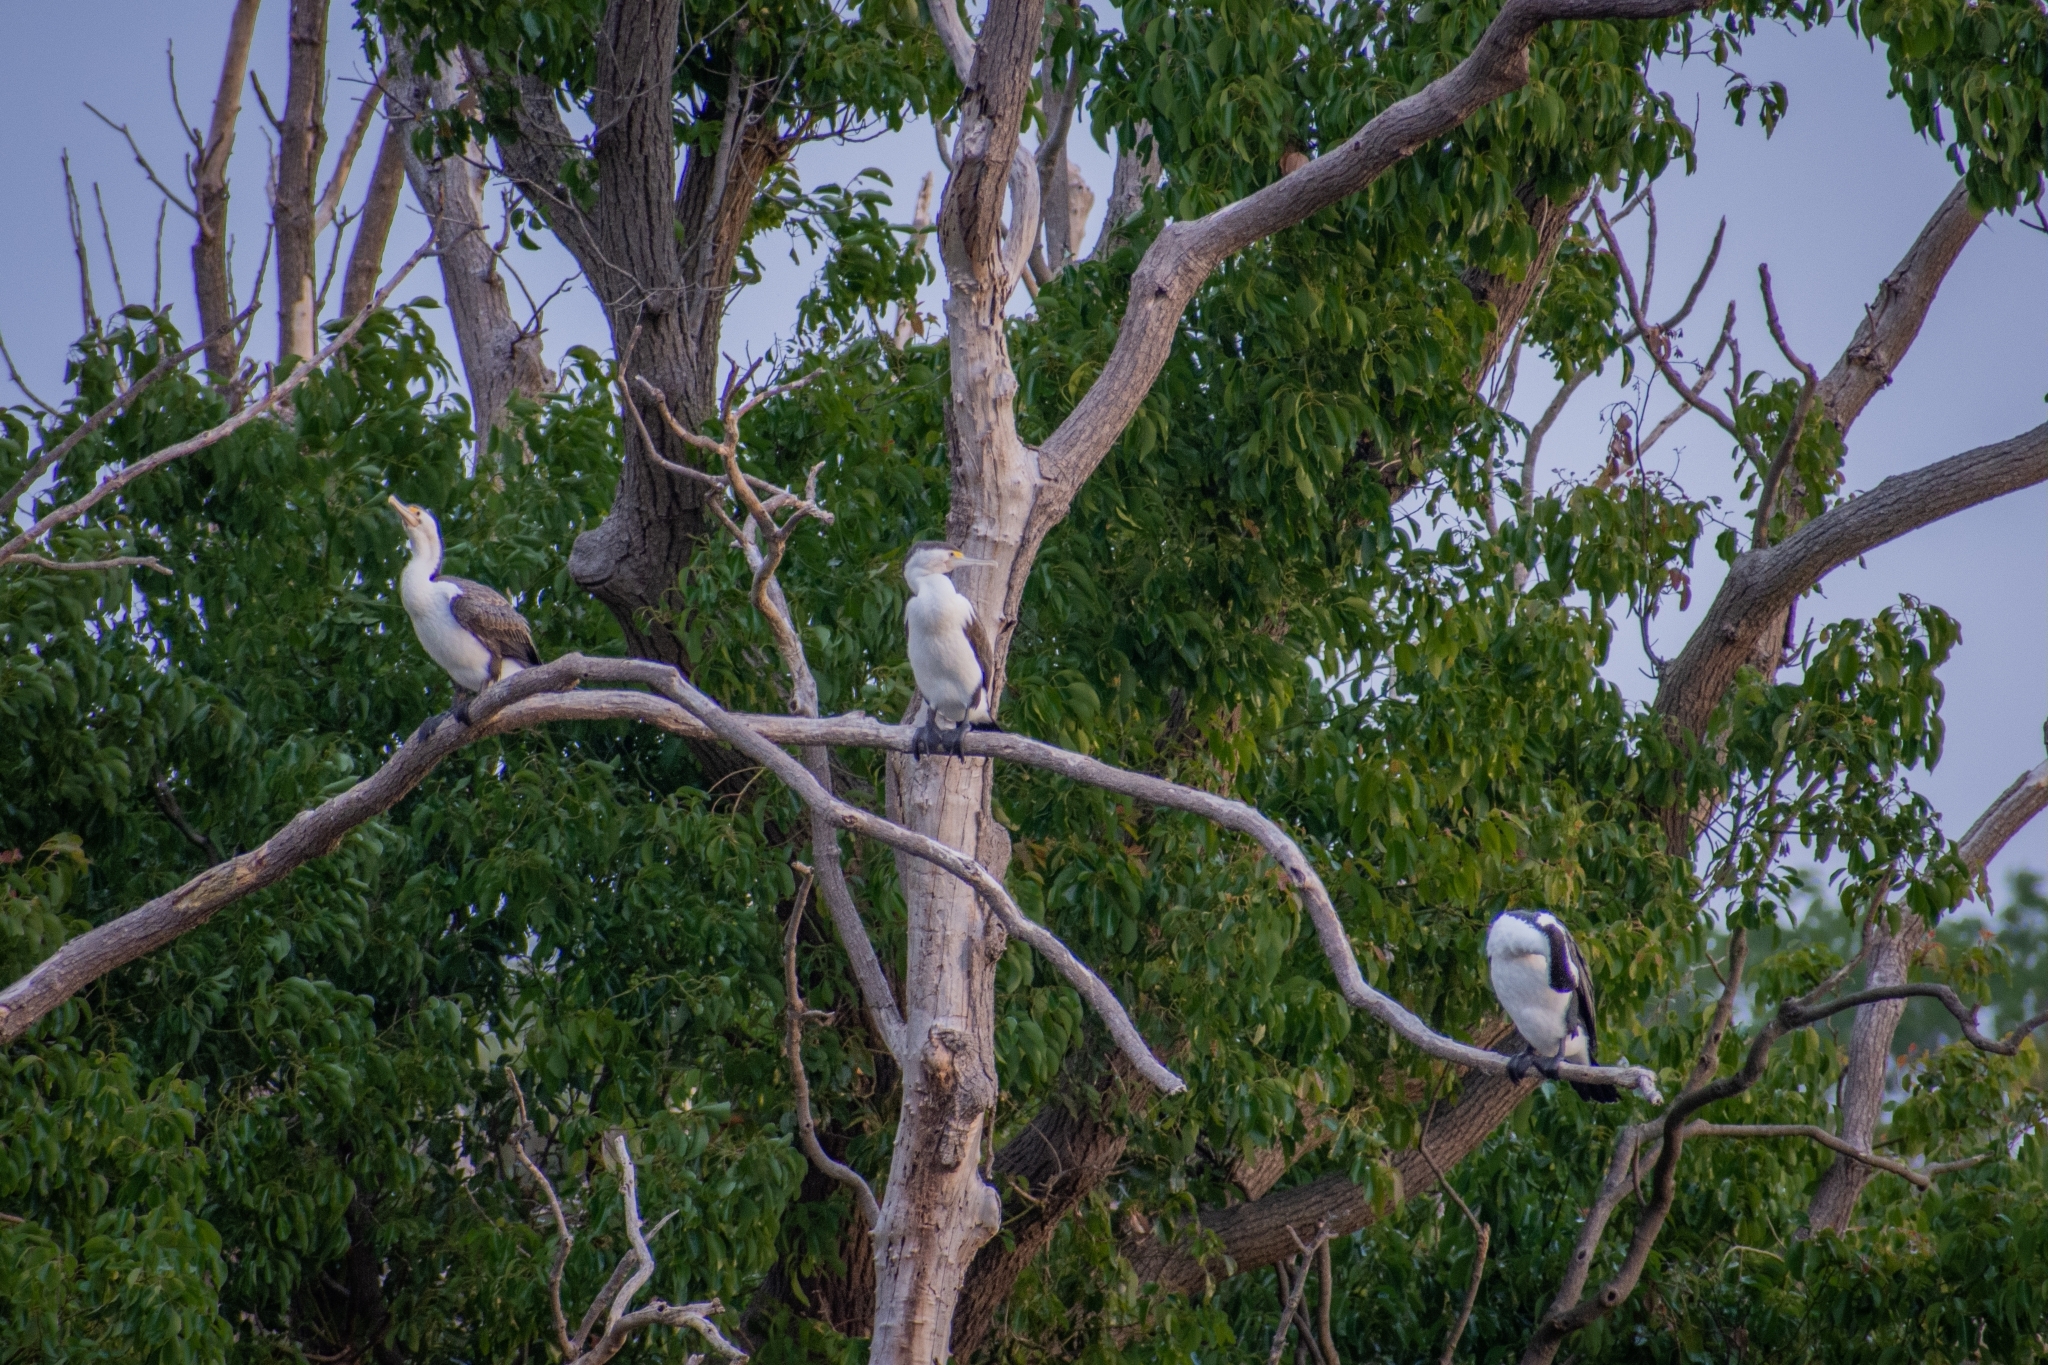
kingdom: Animalia
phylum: Chordata
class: Aves
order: Suliformes
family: Phalacrocoracidae
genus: Phalacrocorax
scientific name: Phalacrocorax varius
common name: Pied cormorant
